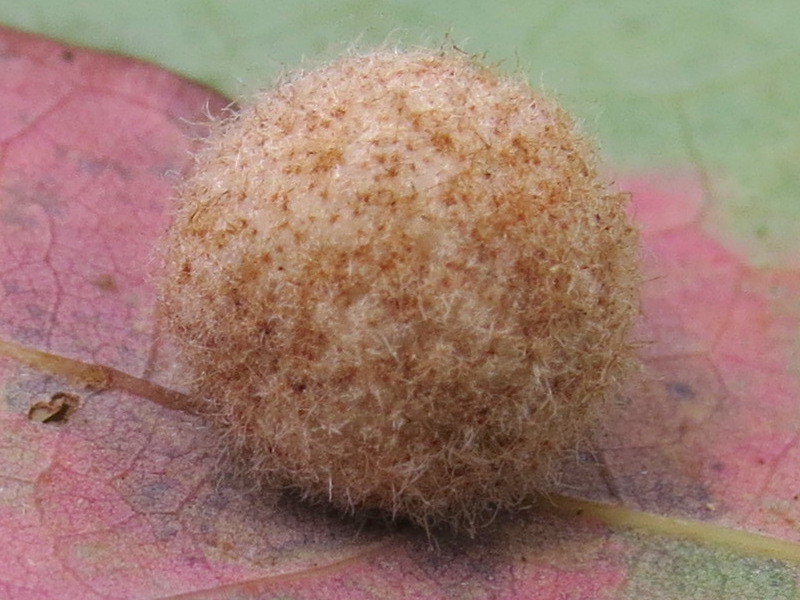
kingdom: Animalia
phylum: Arthropoda
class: Insecta
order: Hymenoptera
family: Cynipidae
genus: Philonix
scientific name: Philonix fulvicollis
